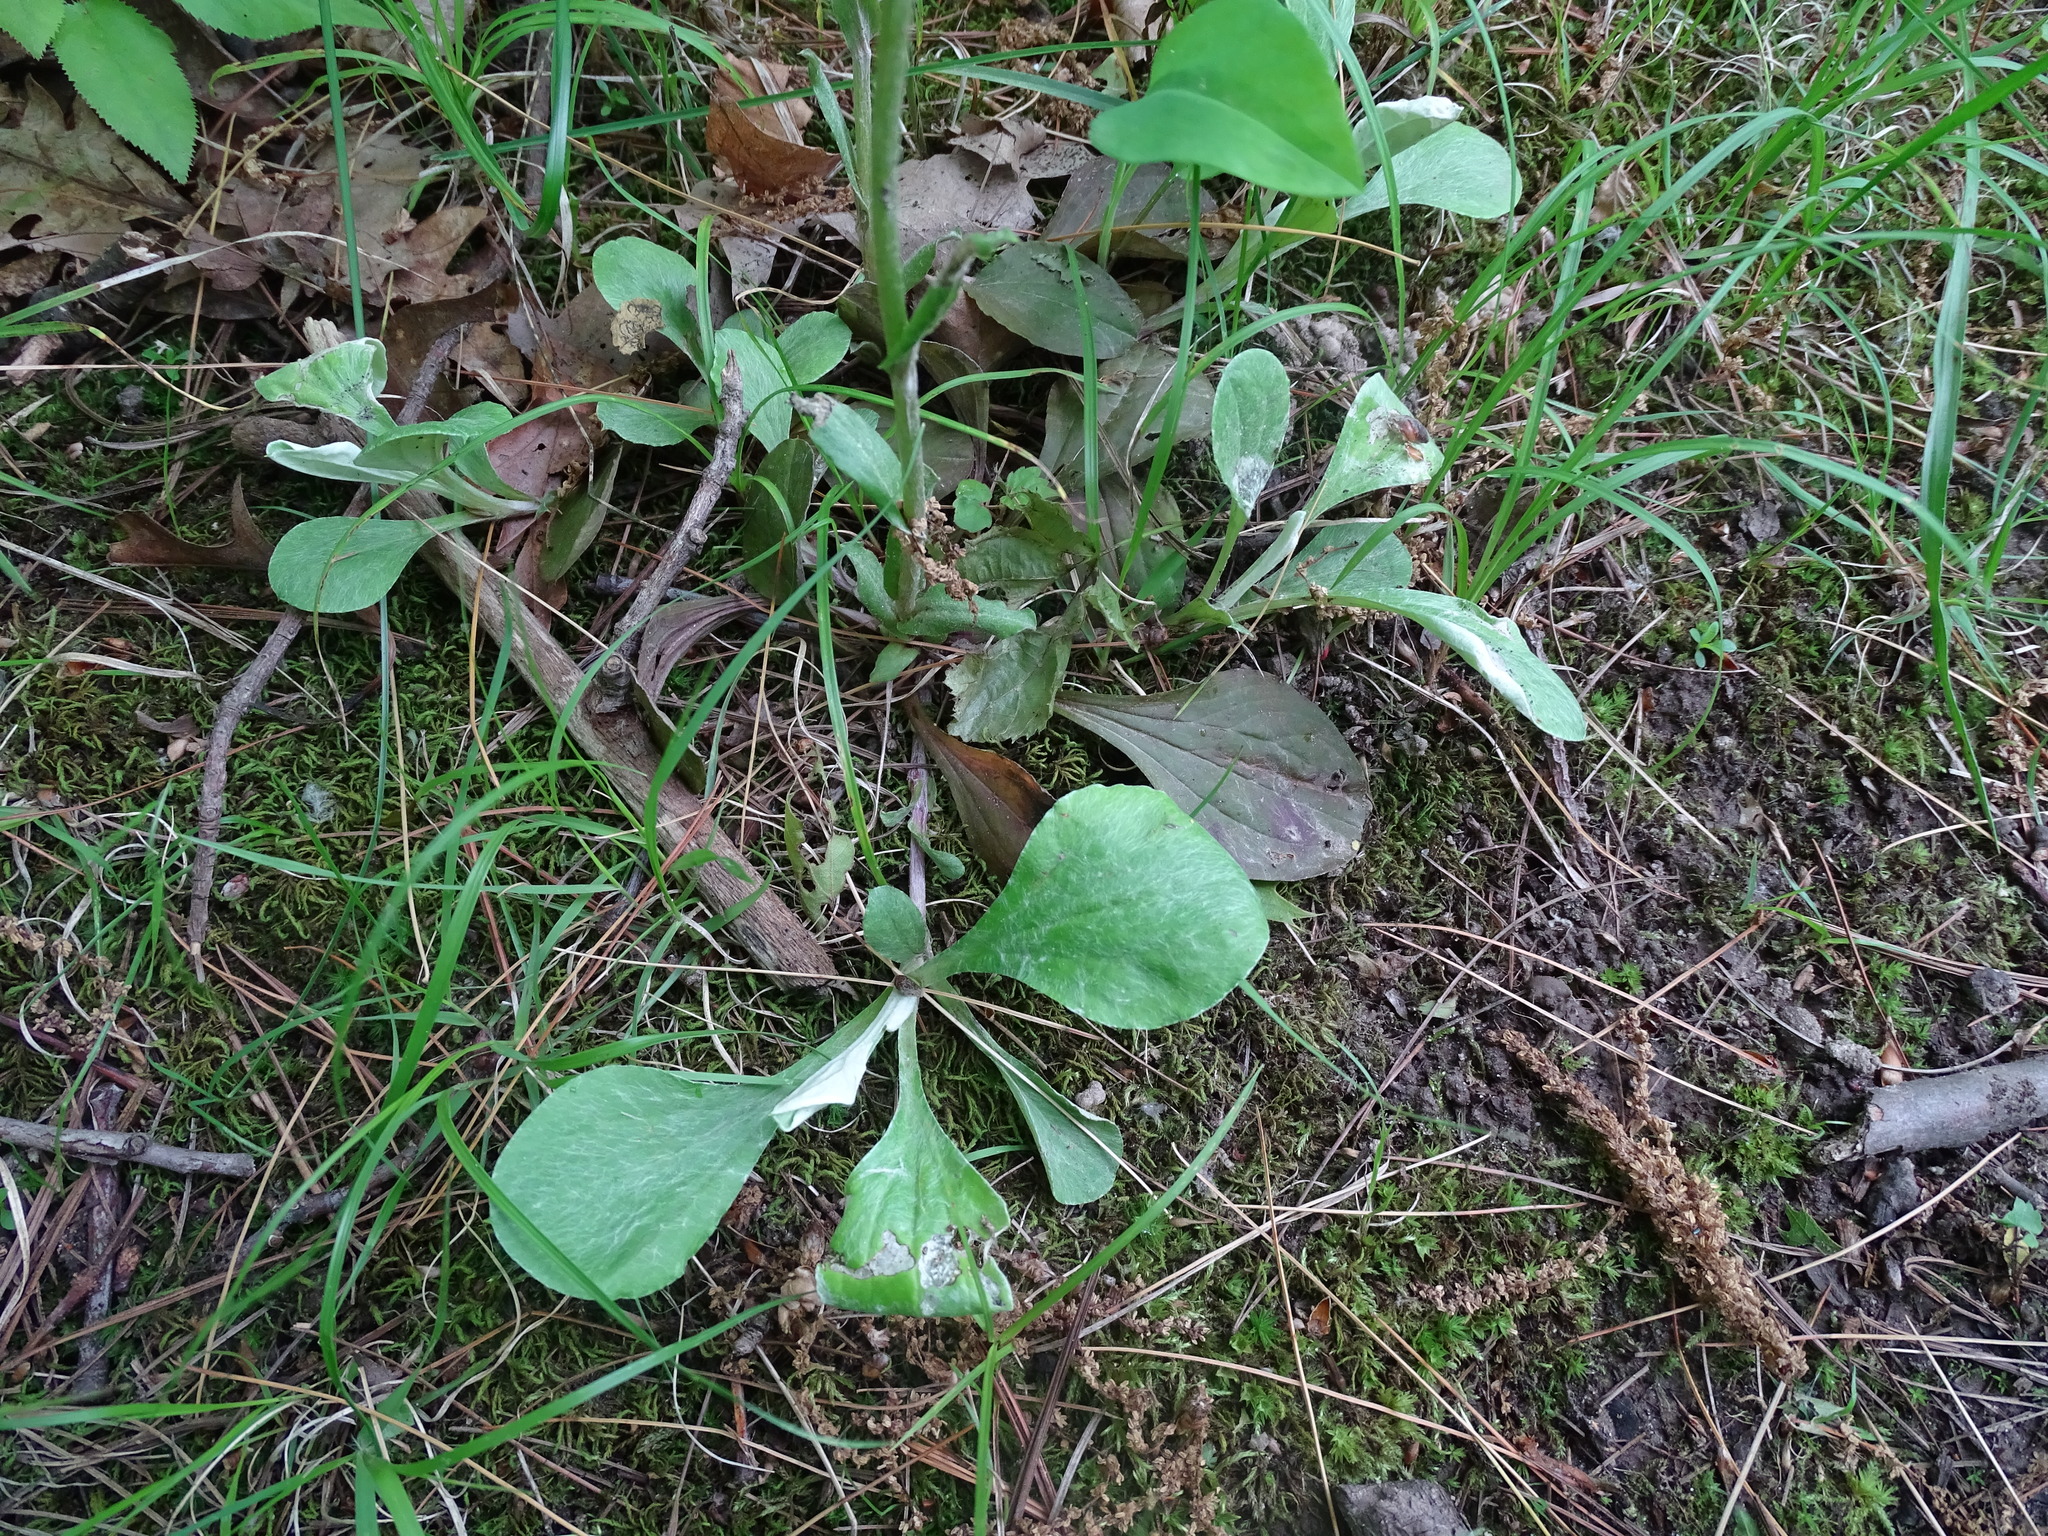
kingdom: Plantae
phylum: Tracheophyta
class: Magnoliopsida
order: Asterales
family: Asteraceae
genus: Antennaria
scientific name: Antennaria parlinii
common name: Parlin's pussytoes
